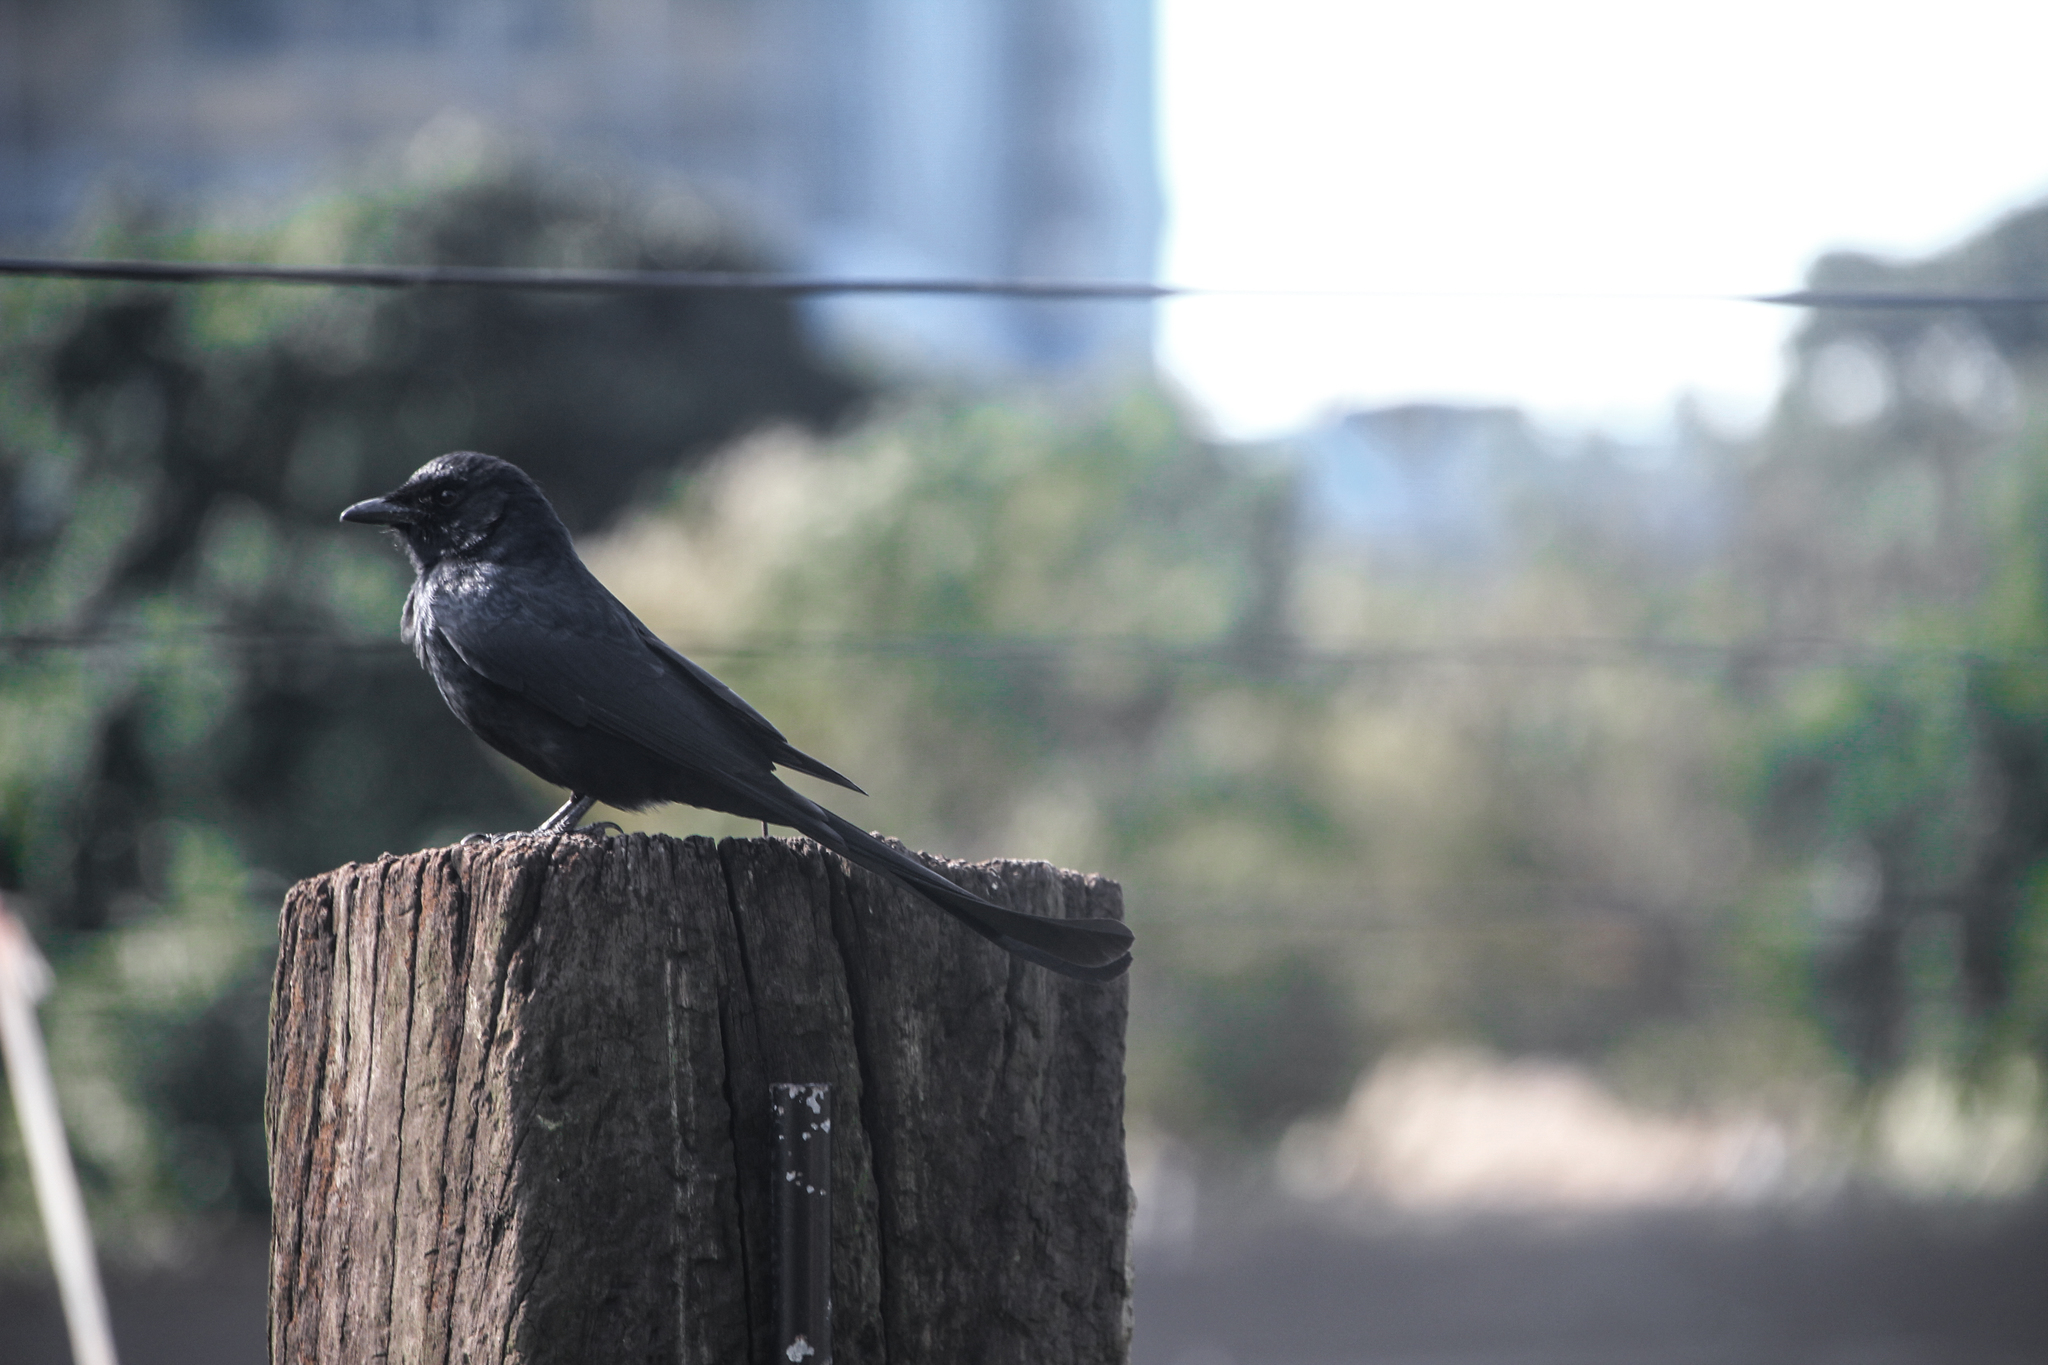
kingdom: Animalia
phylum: Chordata
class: Aves
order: Passeriformes
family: Dicruridae
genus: Dicrurus
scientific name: Dicrurus macrocercus
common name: Black drongo
